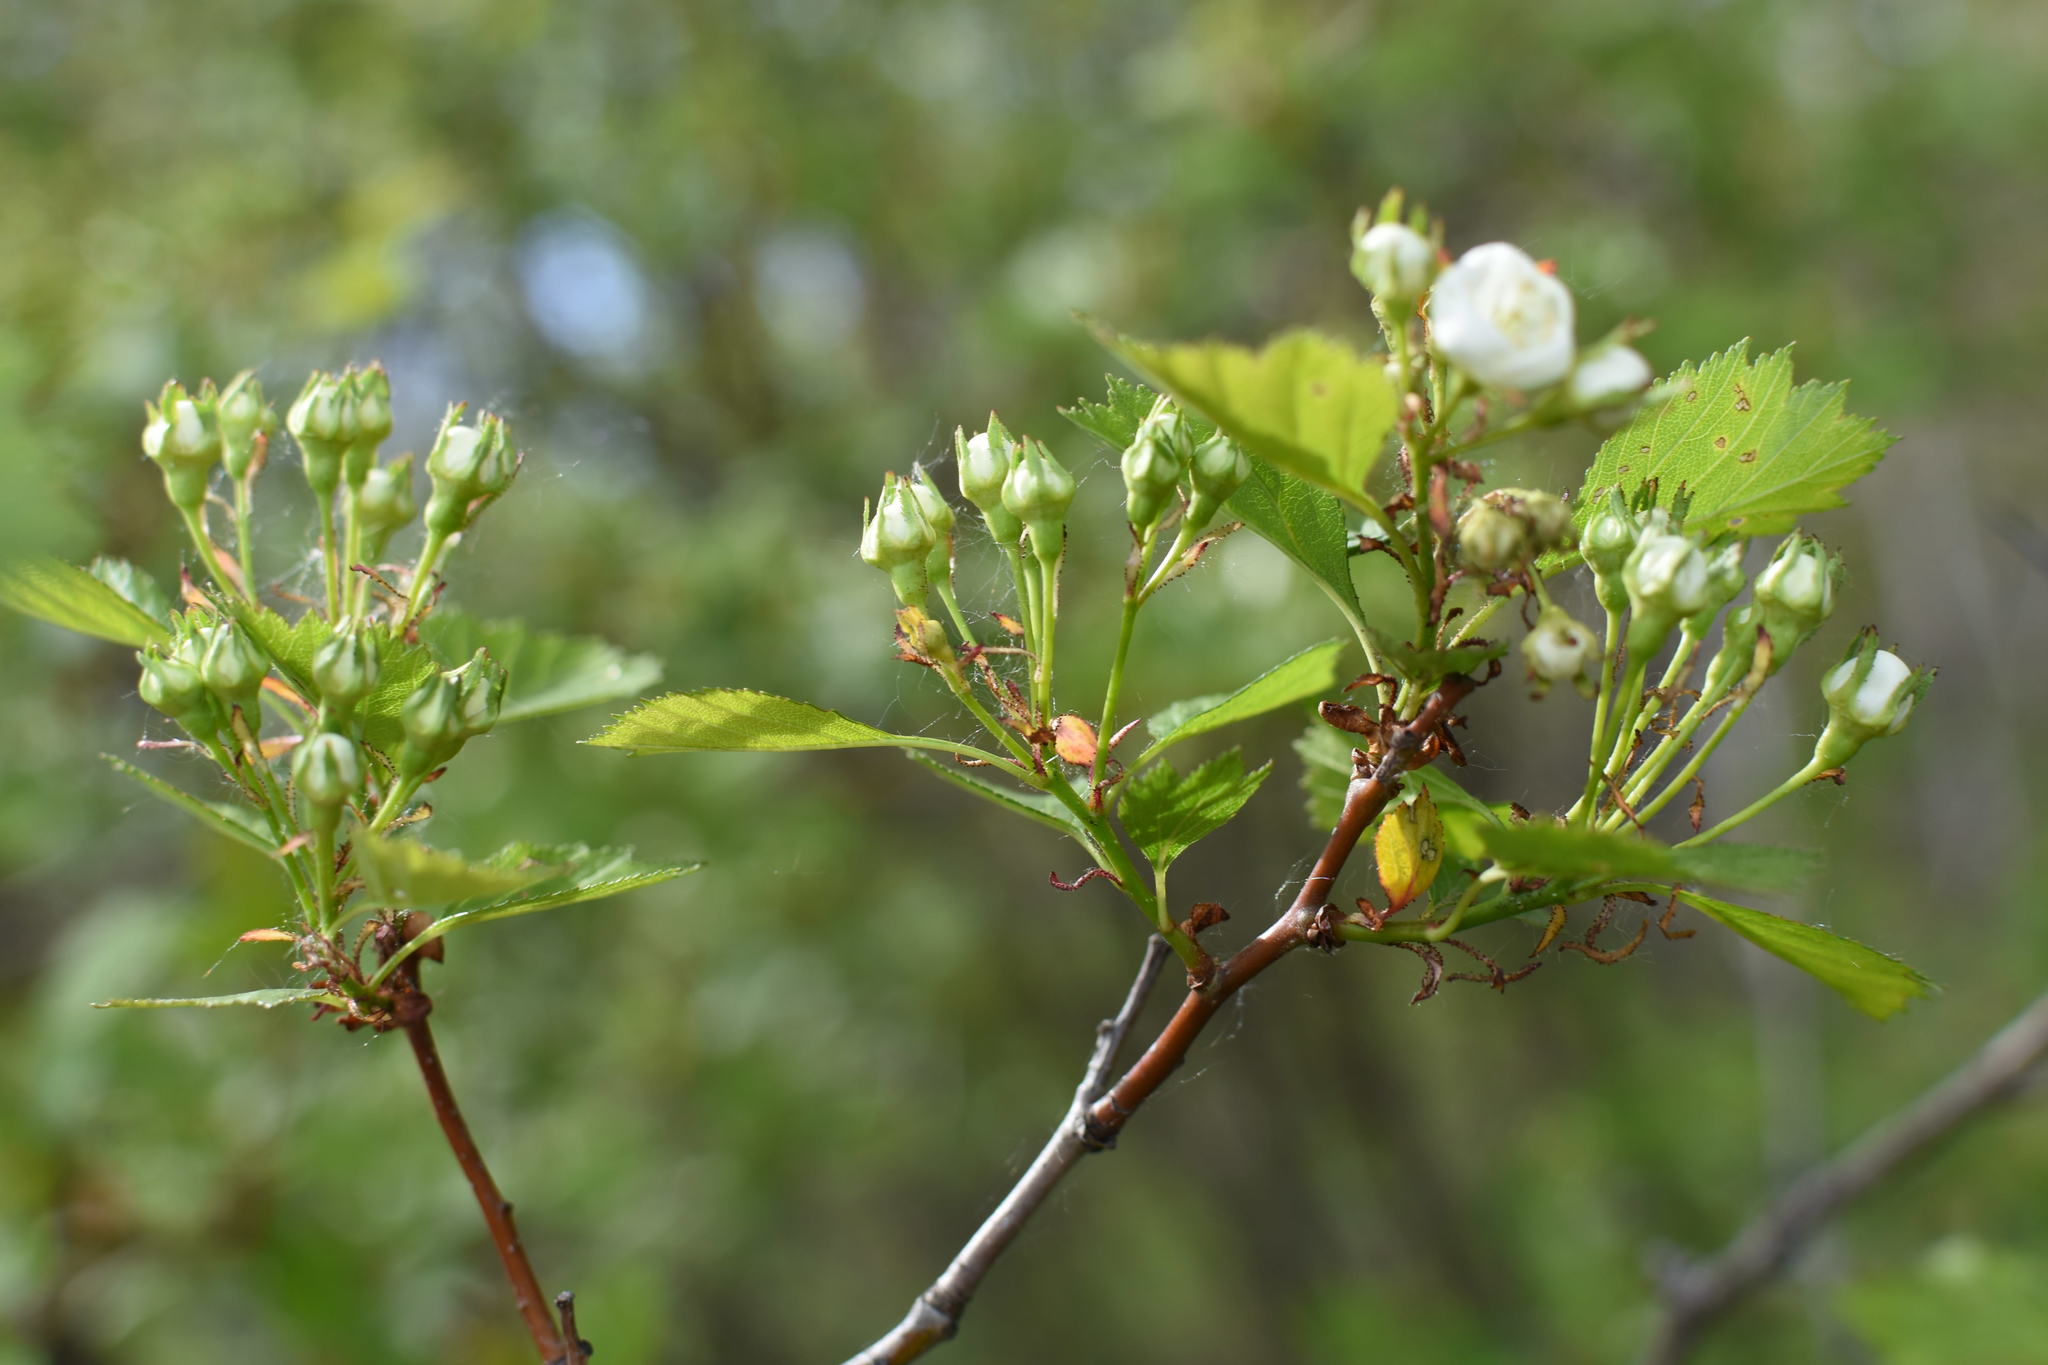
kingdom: Plantae
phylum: Tracheophyta
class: Magnoliopsida
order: Rosales
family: Rosaceae
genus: Crataegus
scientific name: Crataegus chrysocarpa
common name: Fire-berry hawthorn
